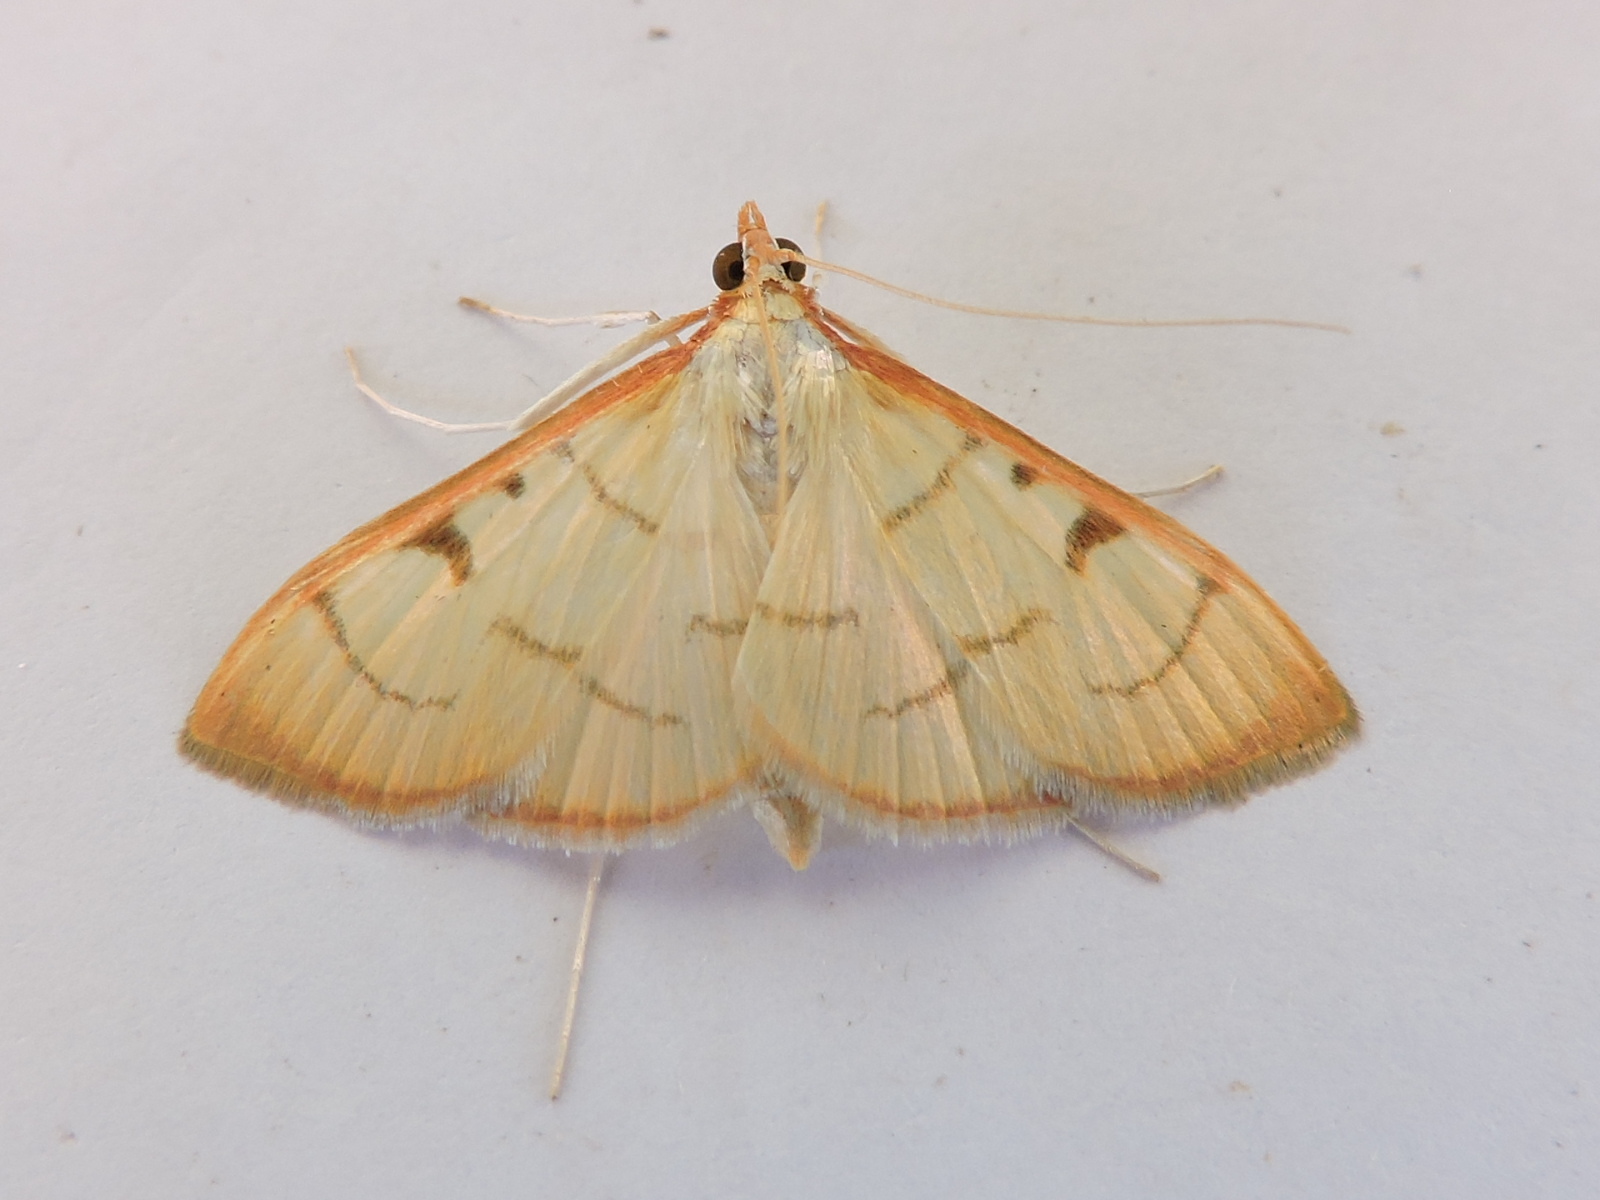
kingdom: Animalia
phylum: Arthropoda
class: Insecta
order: Lepidoptera
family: Crambidae
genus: Sarabotys
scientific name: Sarabotys
